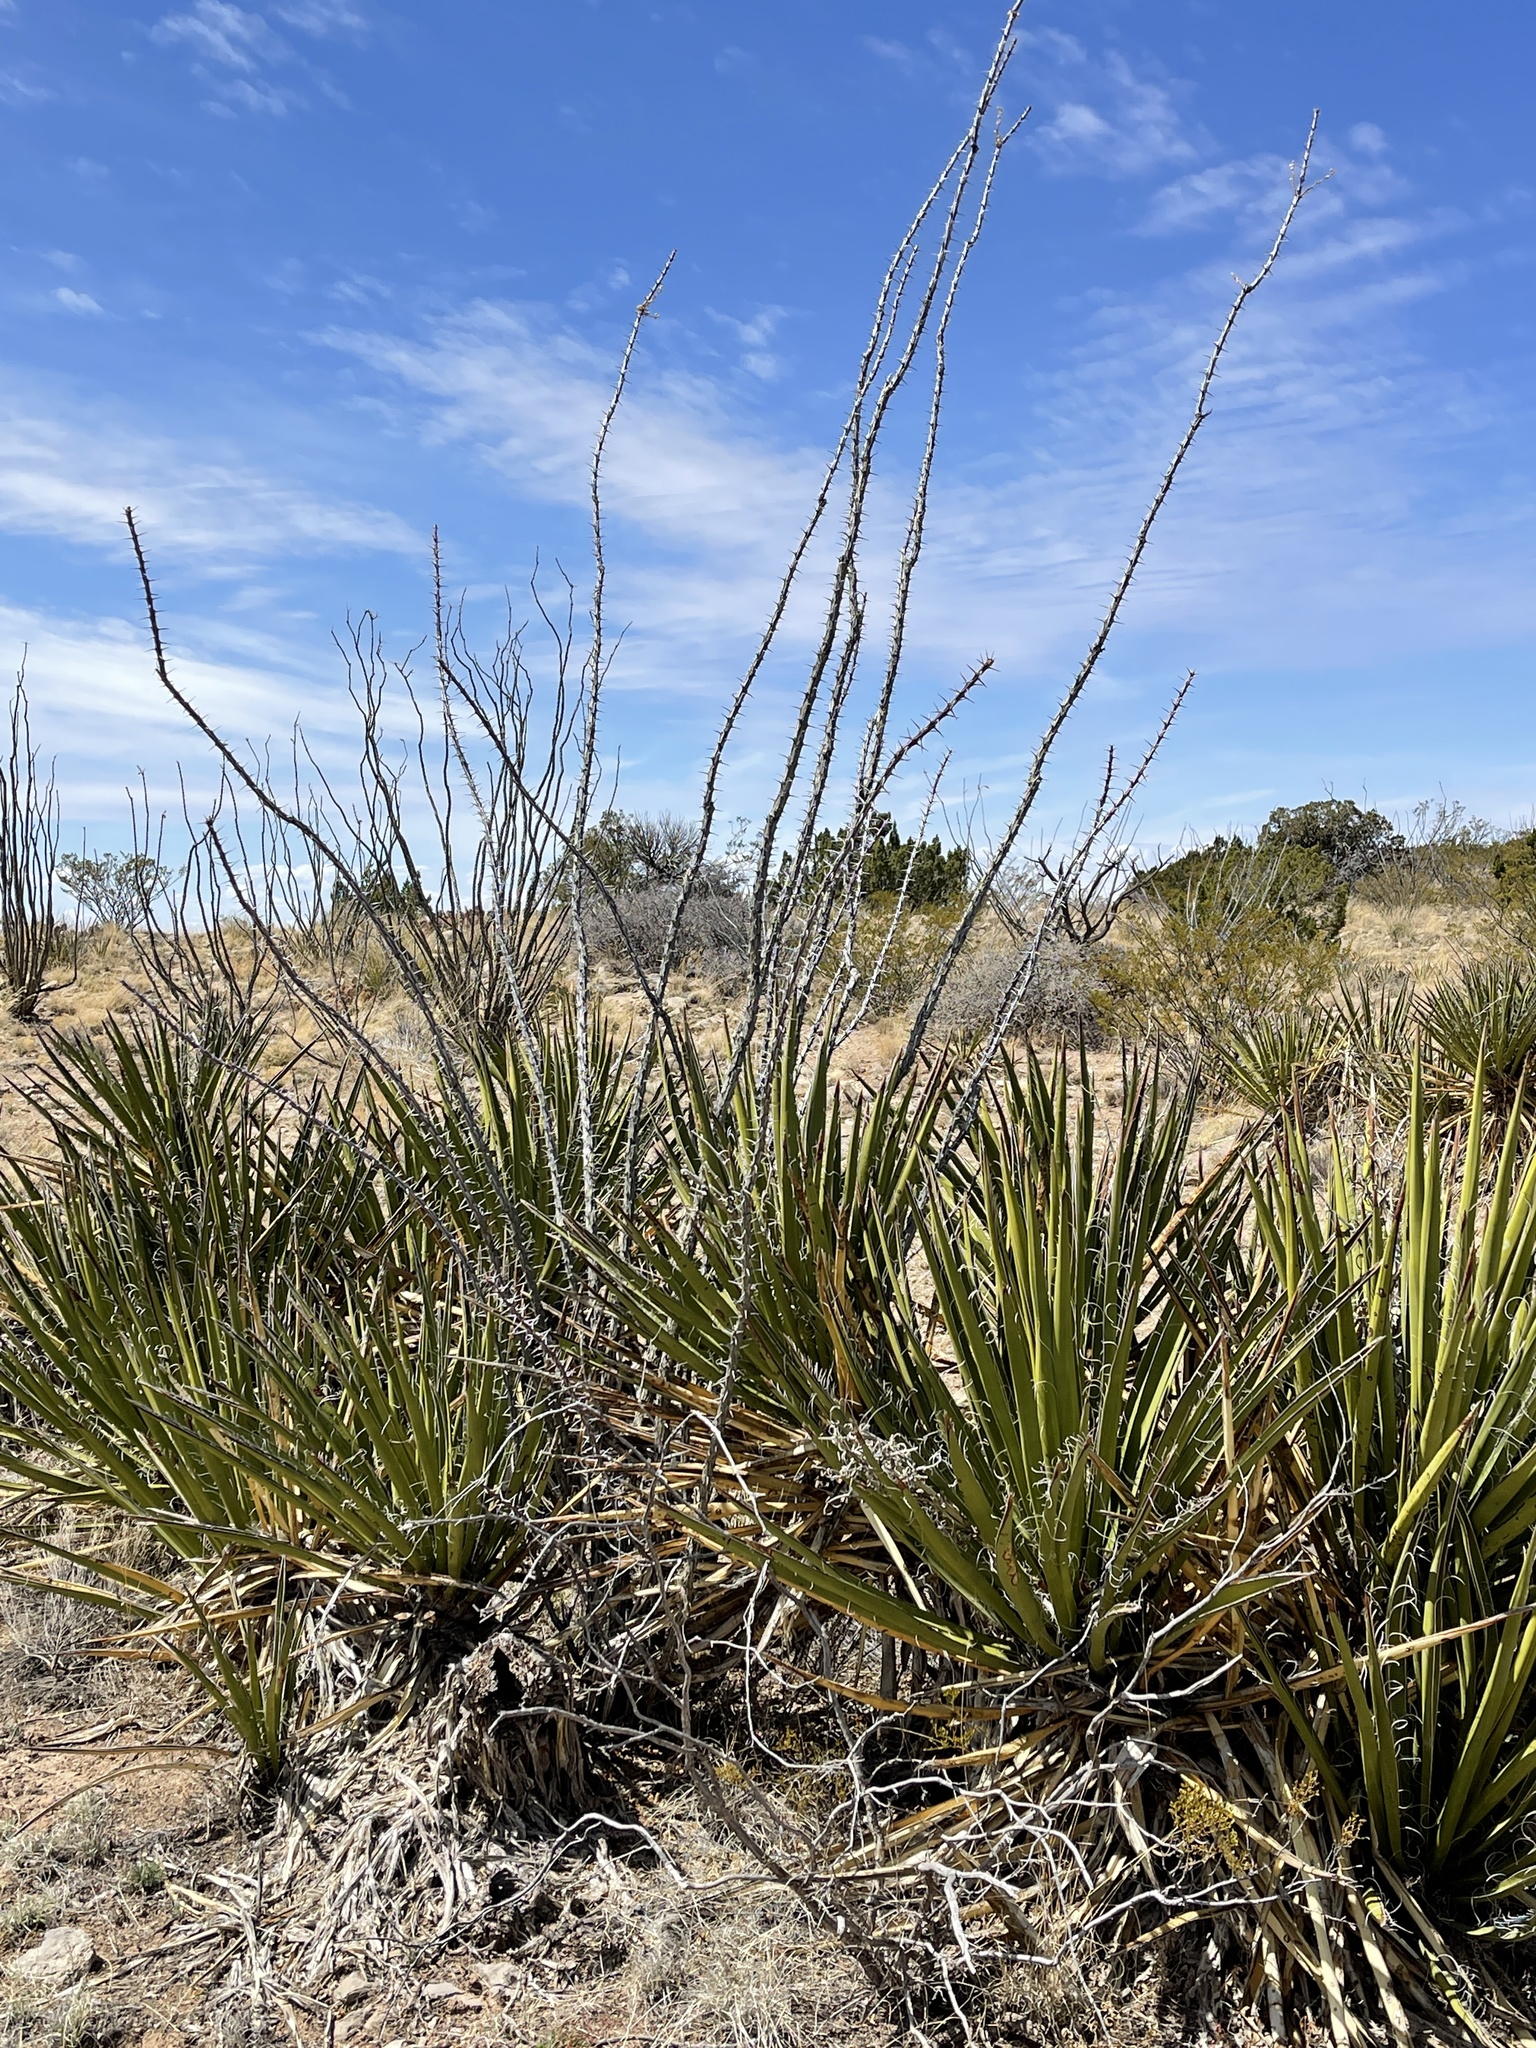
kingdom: Plantae
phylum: Tracheophyta
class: Magnoliopsida
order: Ericales
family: Fouquieriaceae
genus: Fouquieria
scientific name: Fouquieria splendens
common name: Vine-cactus
